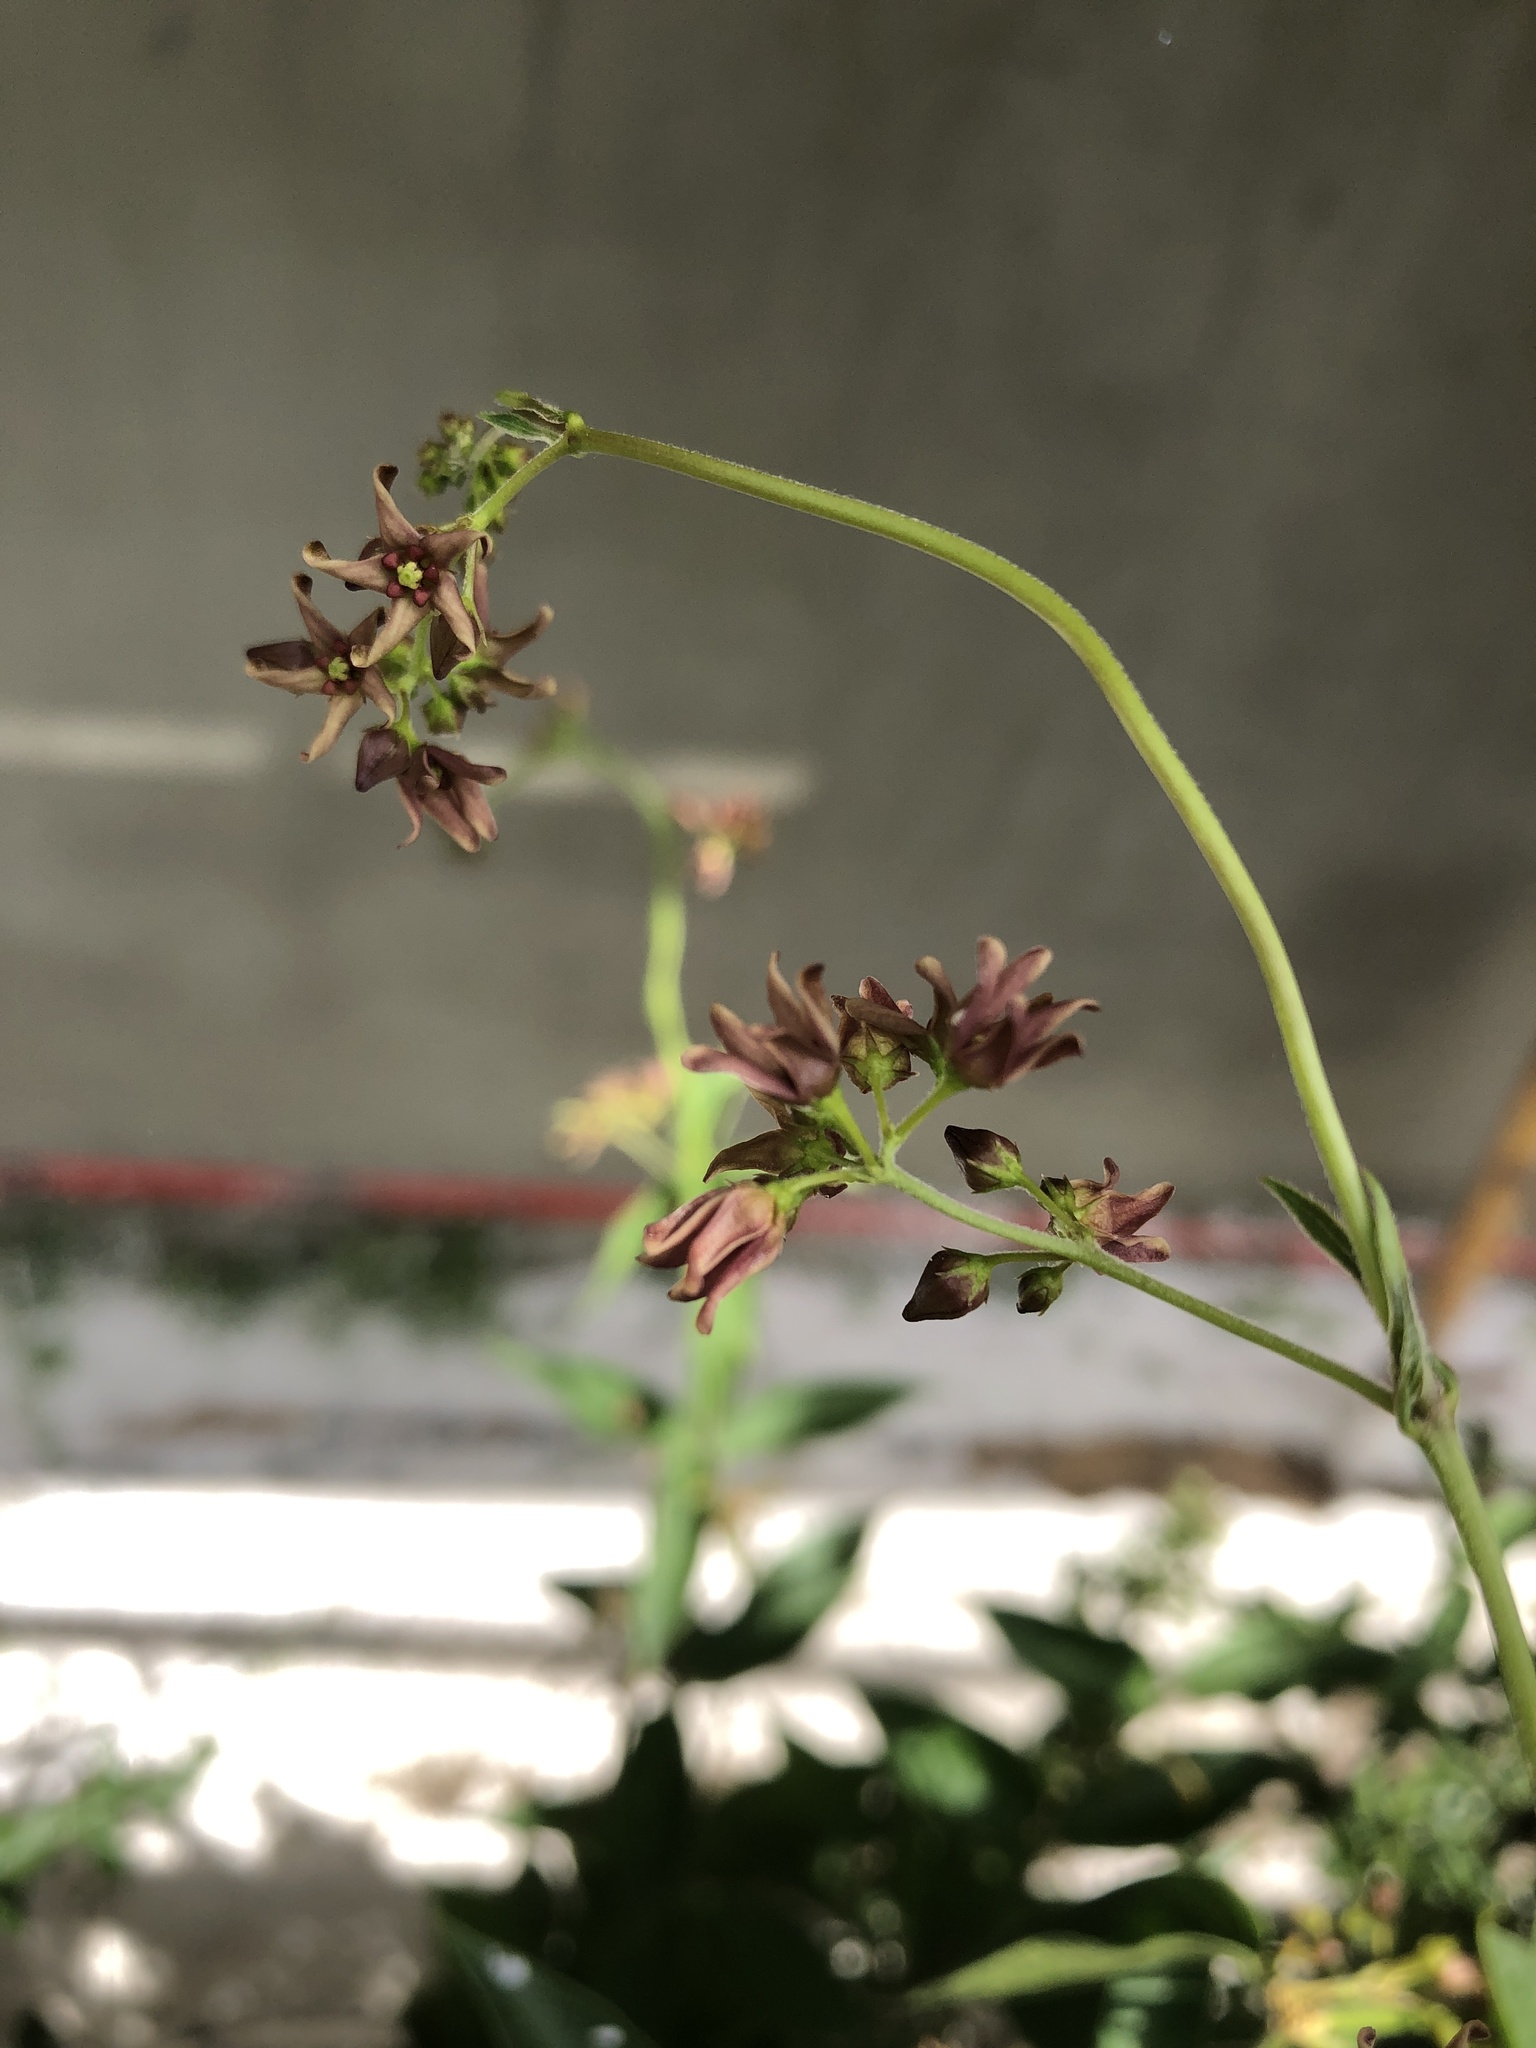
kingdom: Plantae
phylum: Tracheophyta
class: Magnoliopsida
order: Gentianales
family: Apocynaceae
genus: Vincetoxicum
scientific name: Vincetoxicum rossicum
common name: Dog-strangling vine
